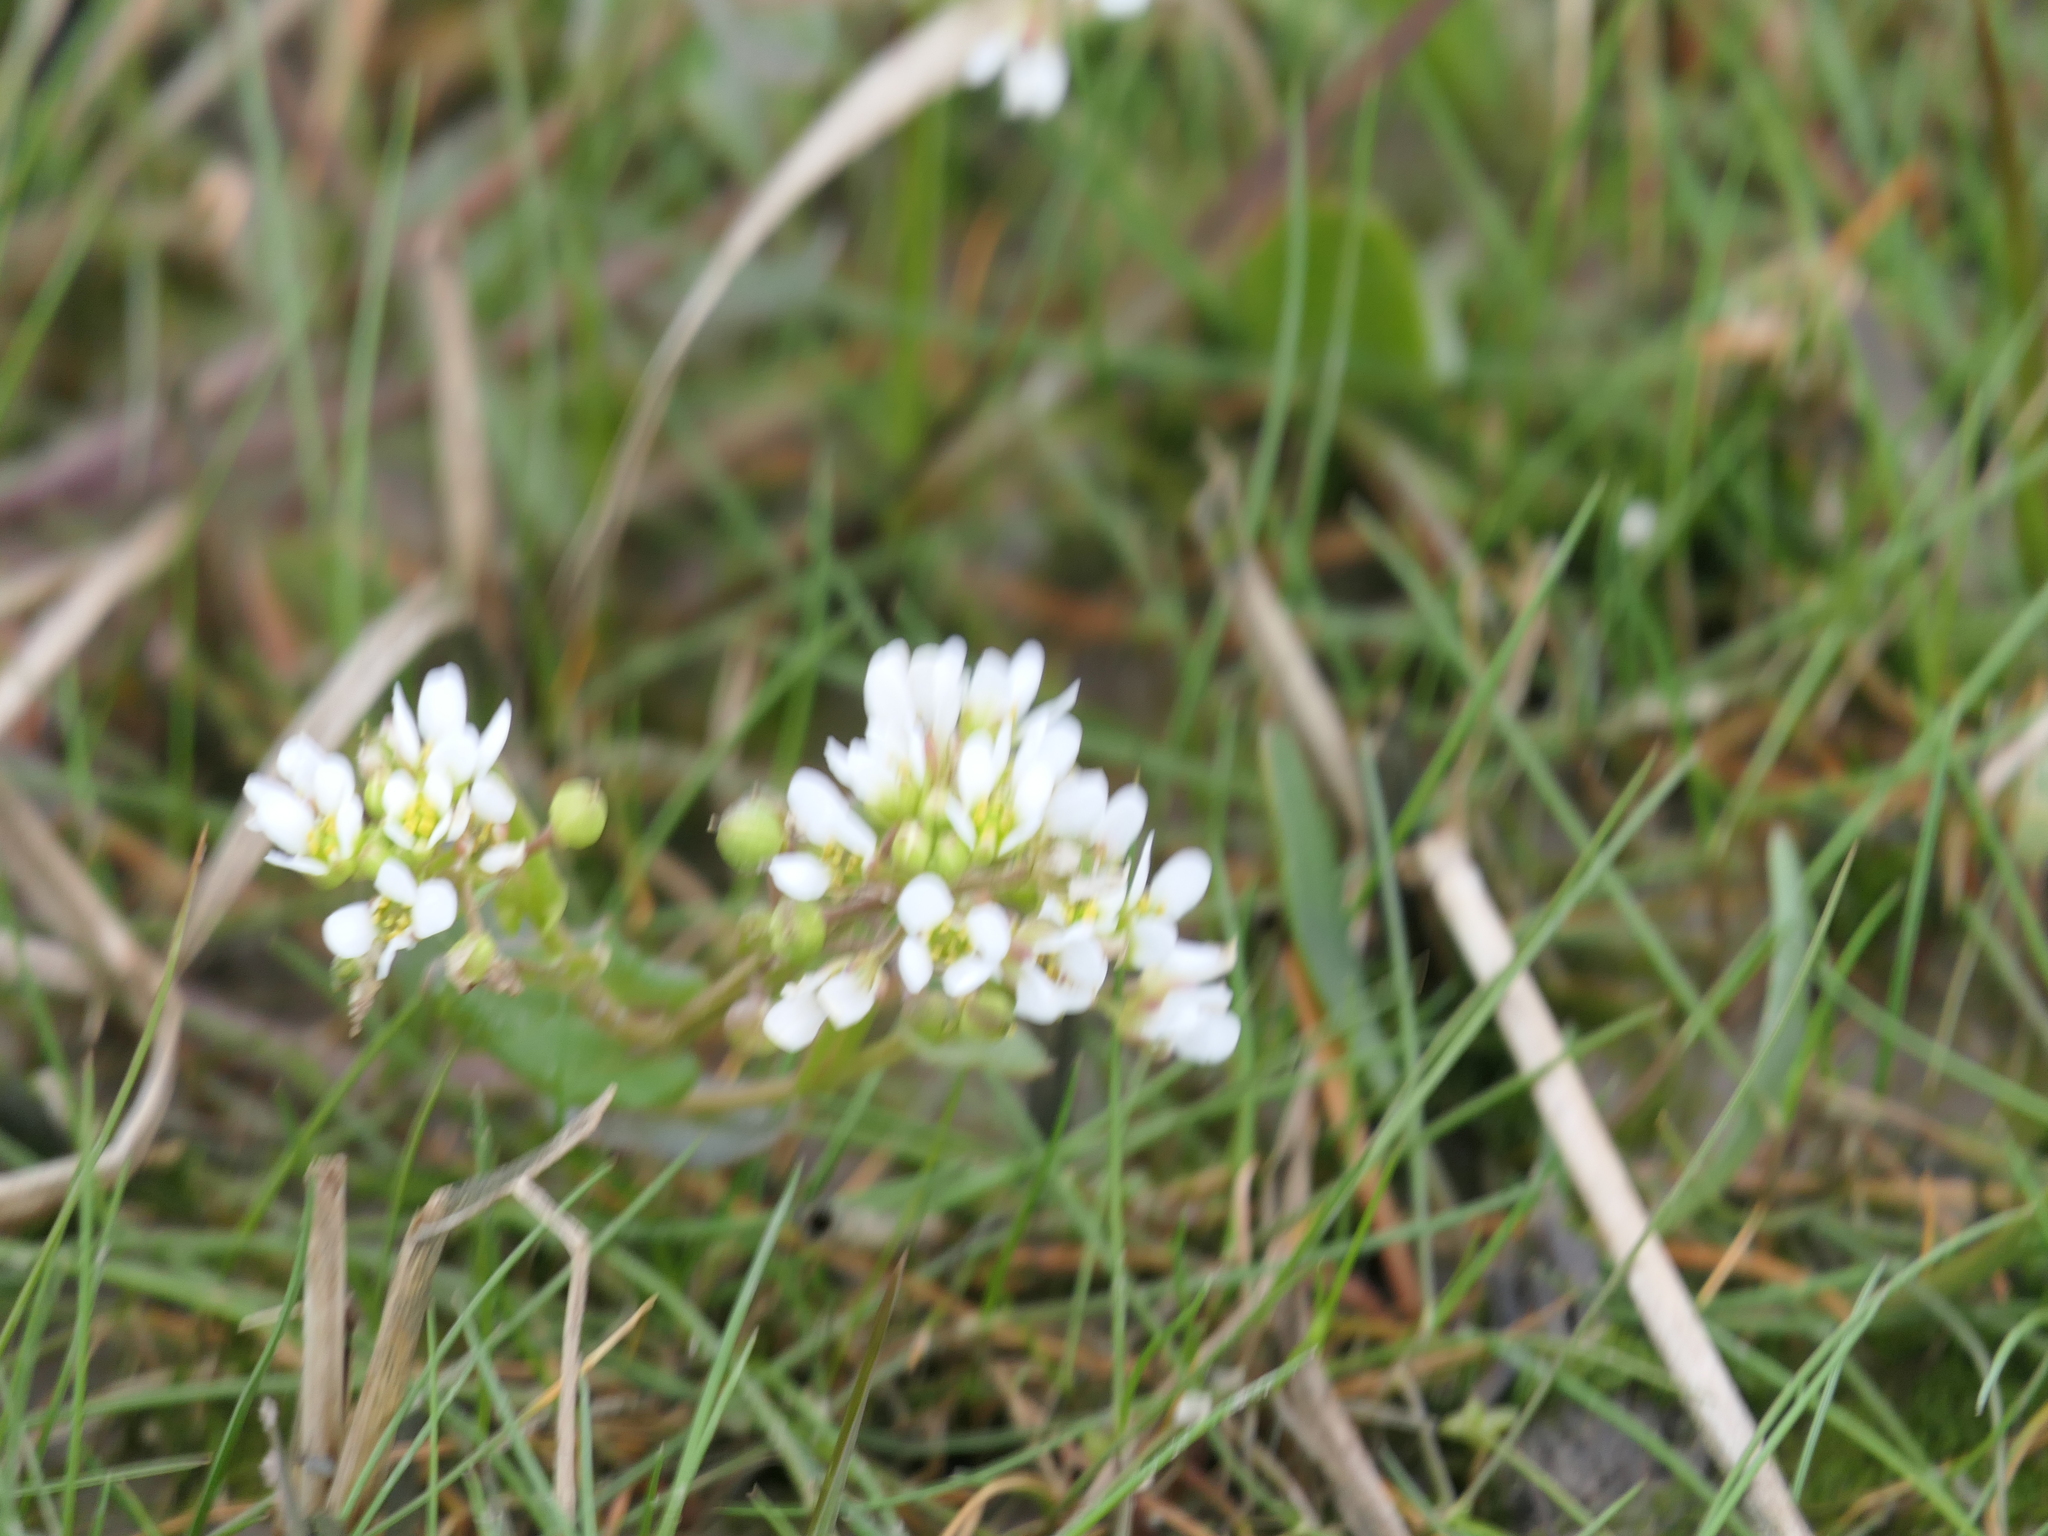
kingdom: Plantae
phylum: Tracheophyta
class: Magnoliopsida
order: Brassicales
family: Brassicaceae
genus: Cochlearia
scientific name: Cochlearia hollandica
